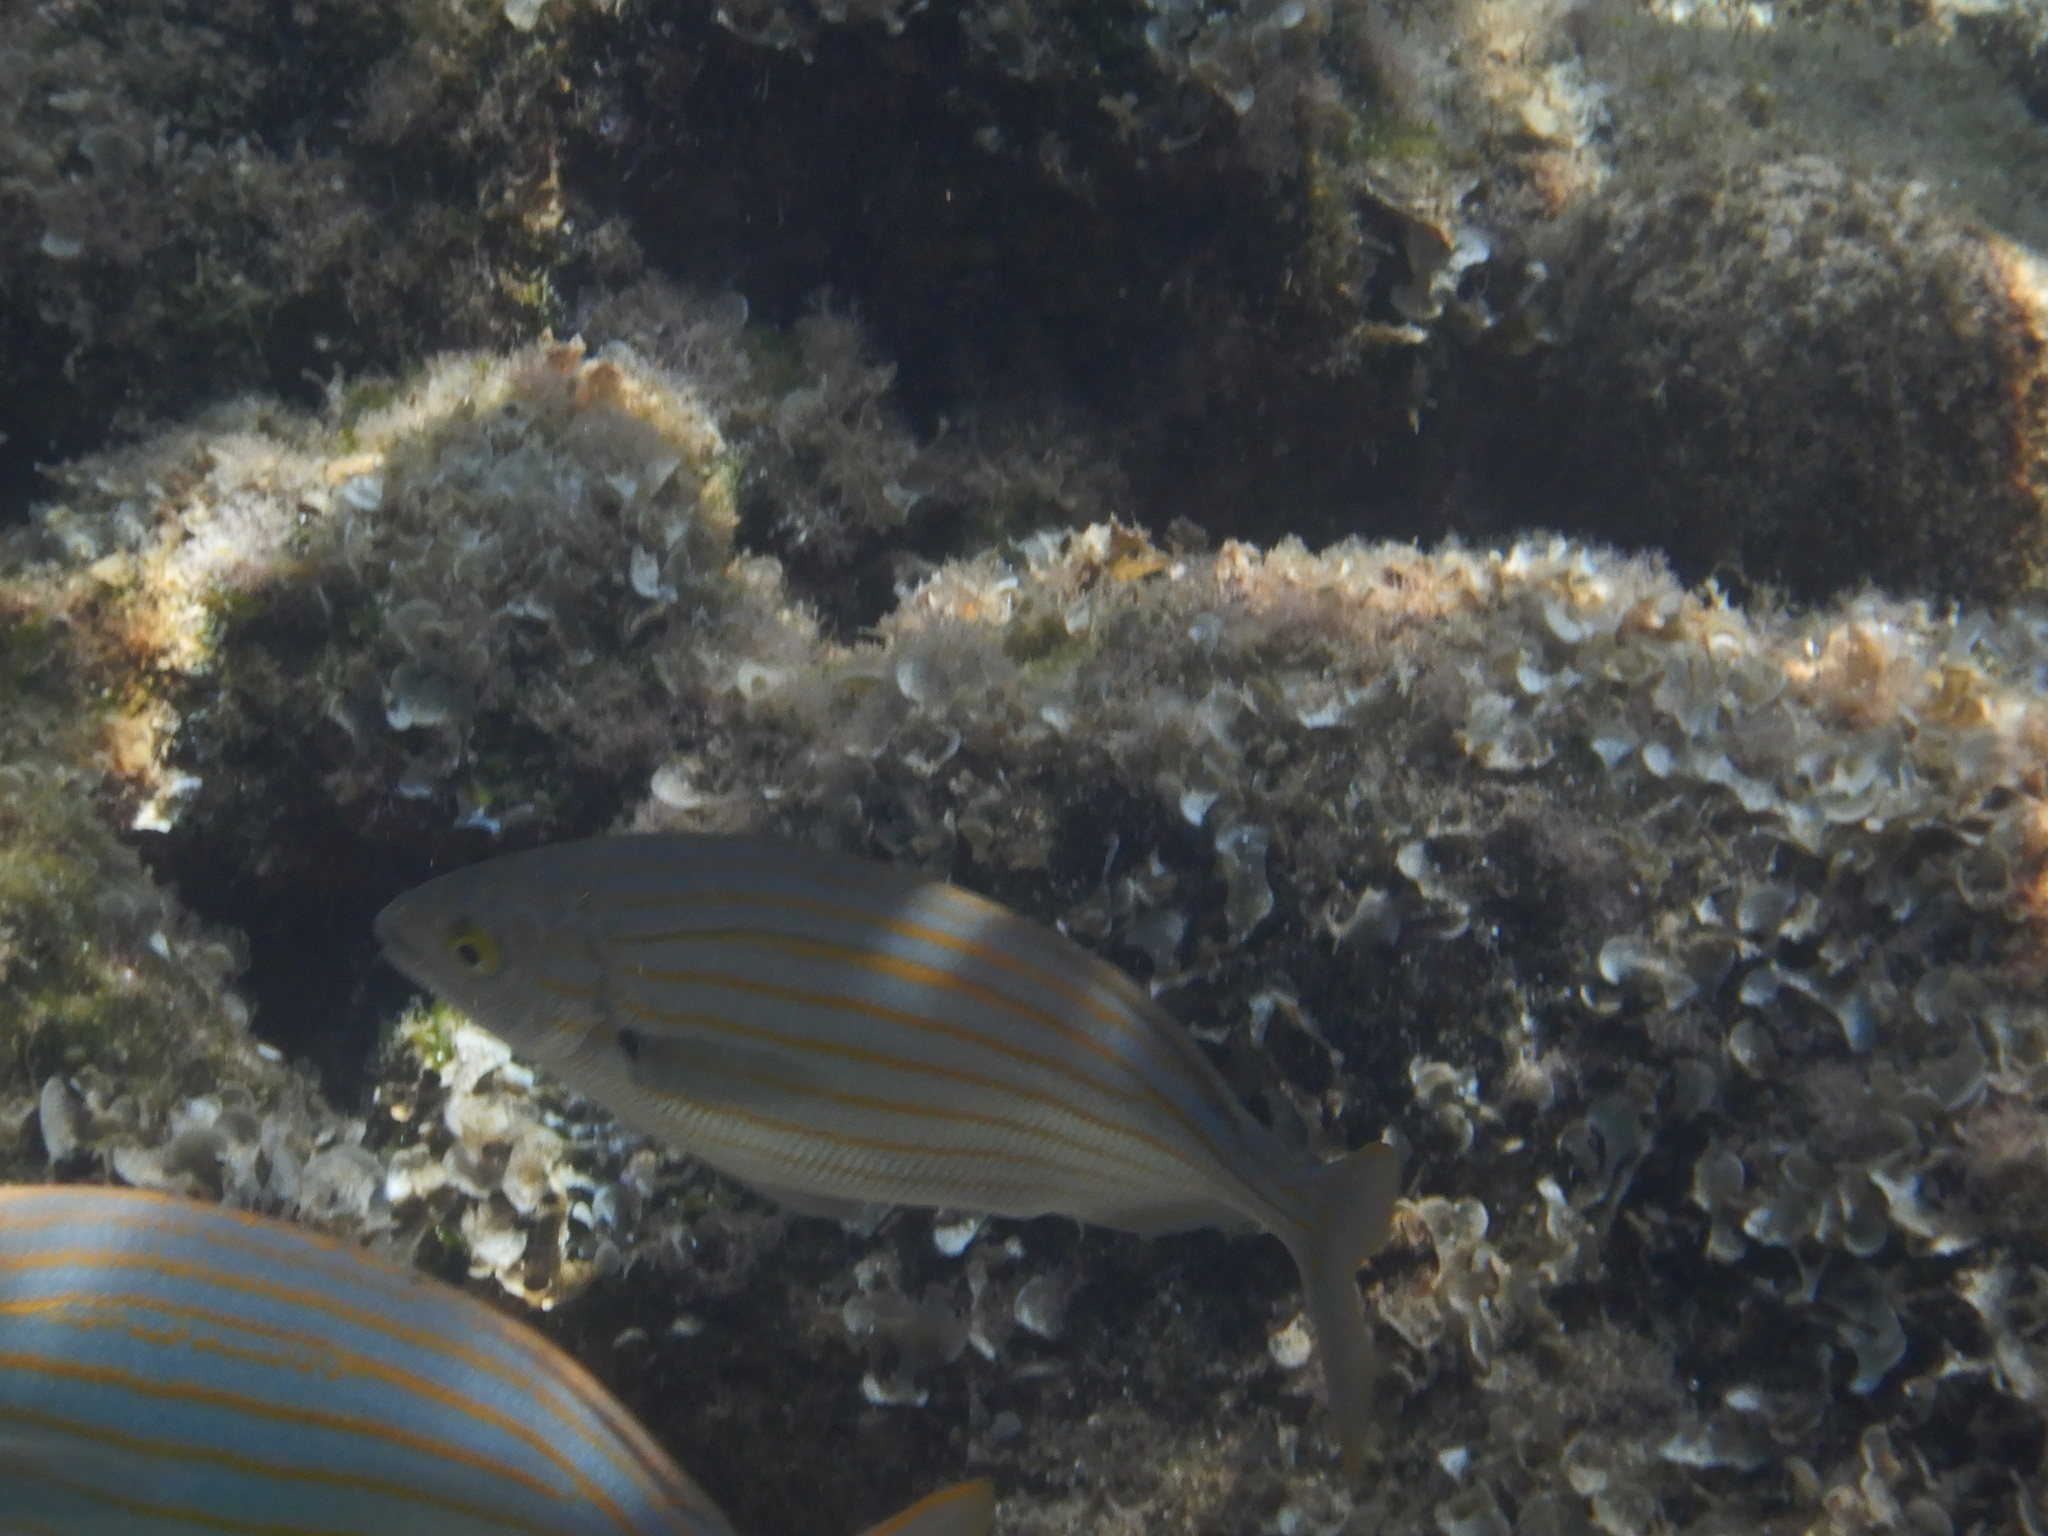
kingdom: Animalia
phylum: Chordata
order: Perciformes
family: Sparidae
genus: Sarpa
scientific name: Sarpa salpa
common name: Salema
